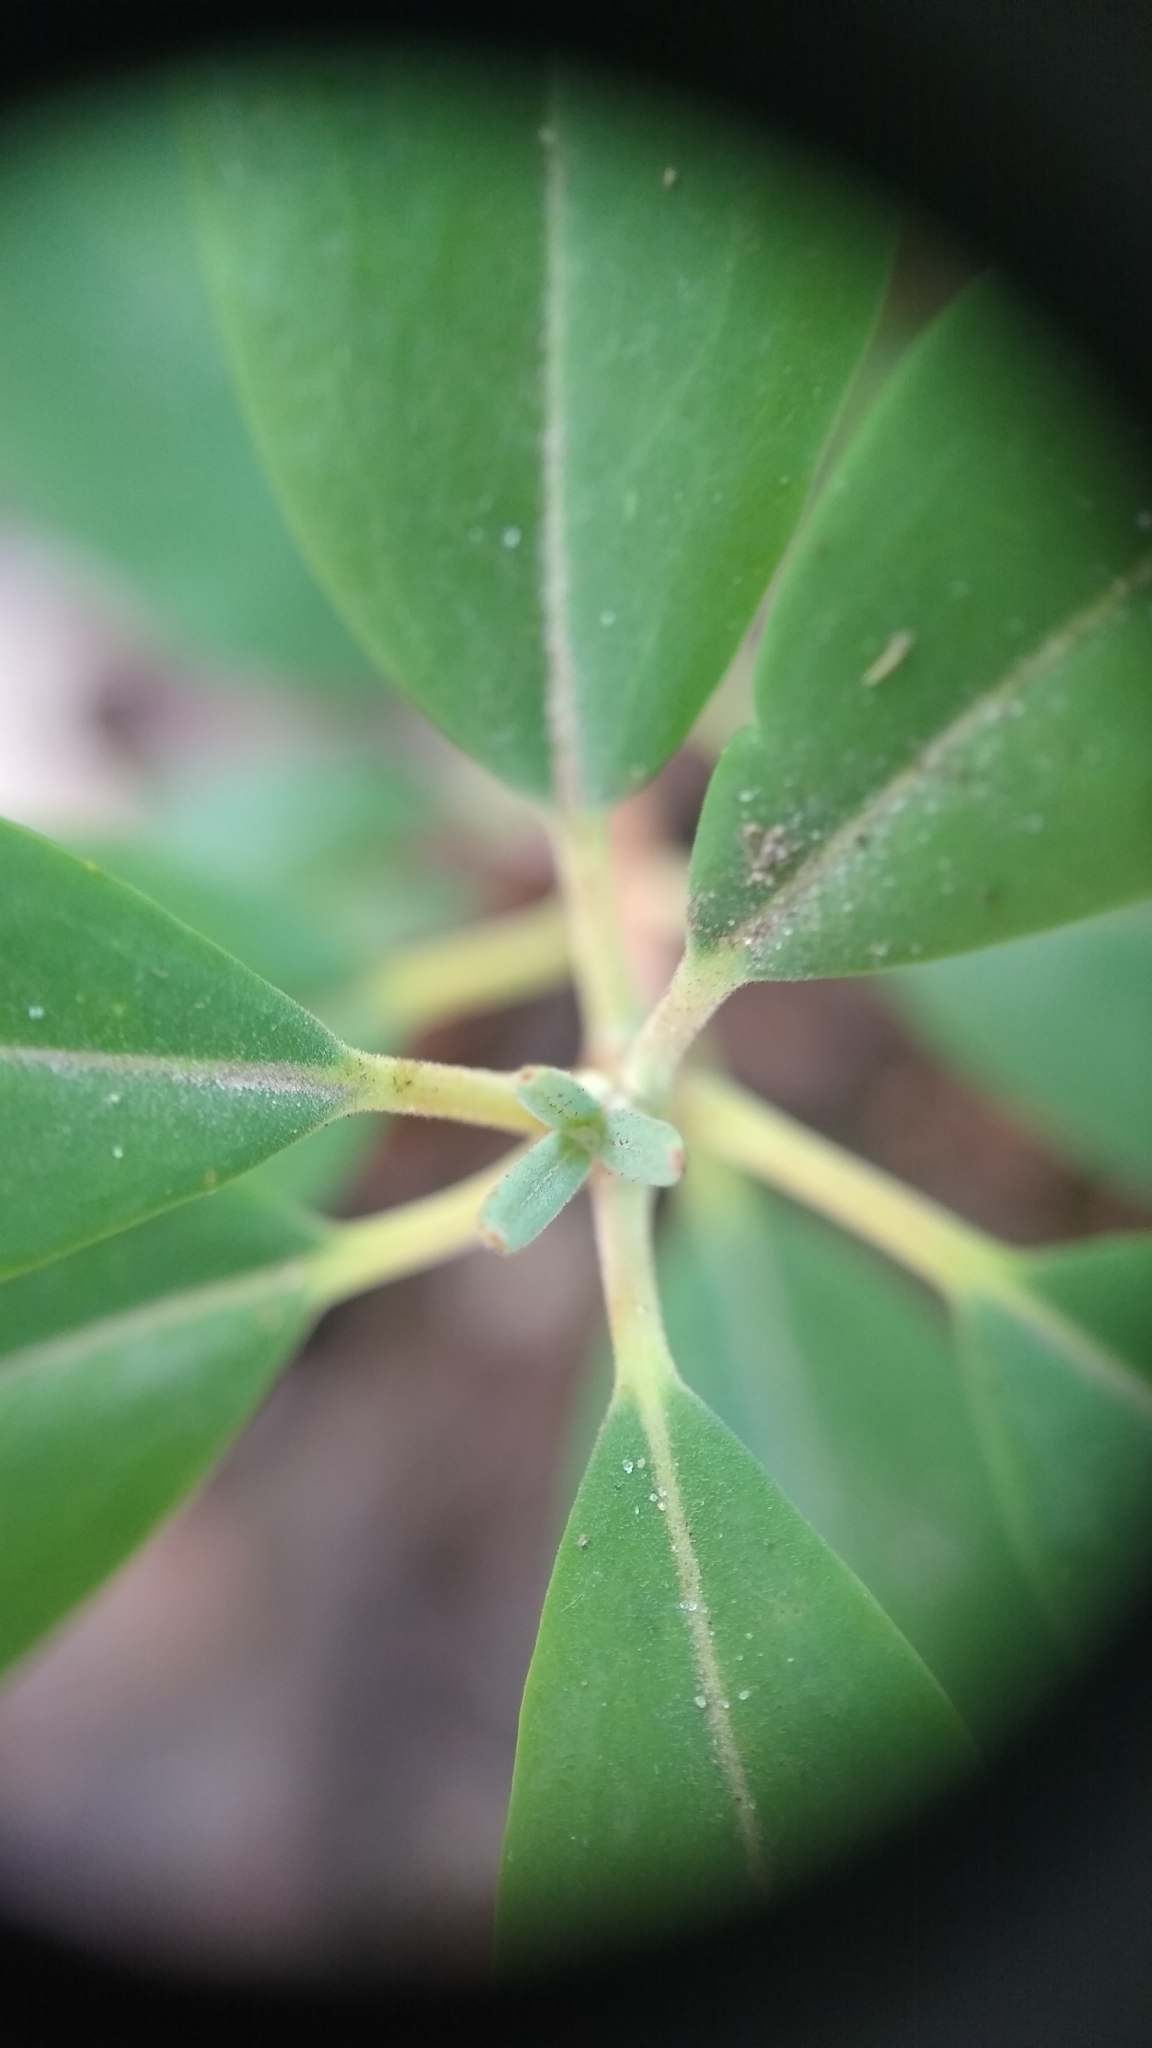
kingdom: Plantae
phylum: Tracheophyta
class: Magnoliopsida
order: Ericales
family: Ericaceae
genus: Kalmia
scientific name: Kalmia angustifolia
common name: Sheep-laurel
